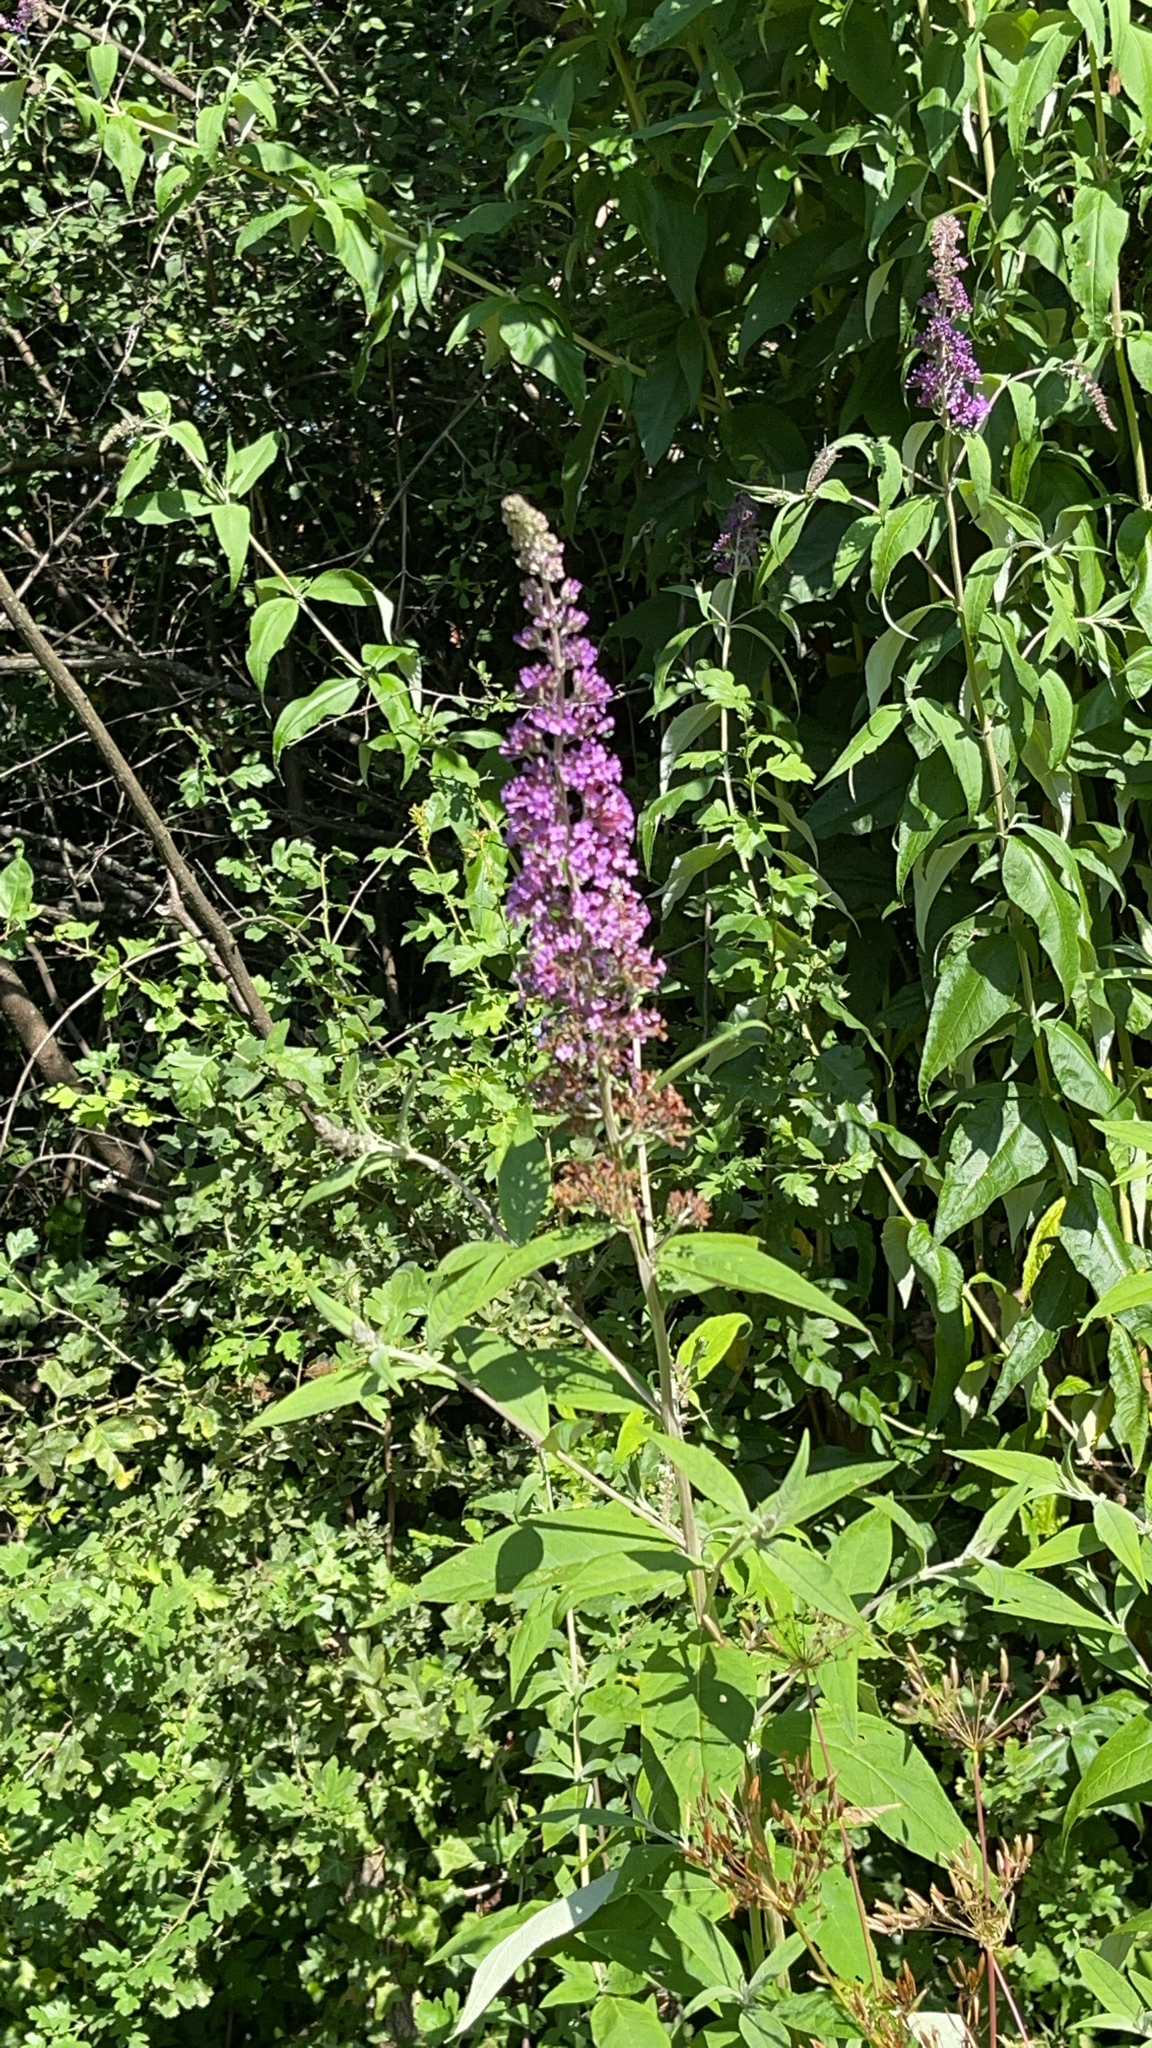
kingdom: Plantae
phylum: Tracheophyta
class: Magnoliopsida
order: Lamiales
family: Scrophulariaceae
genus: Buddleja
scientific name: Buddleja davidii
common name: Butterfly-bush
